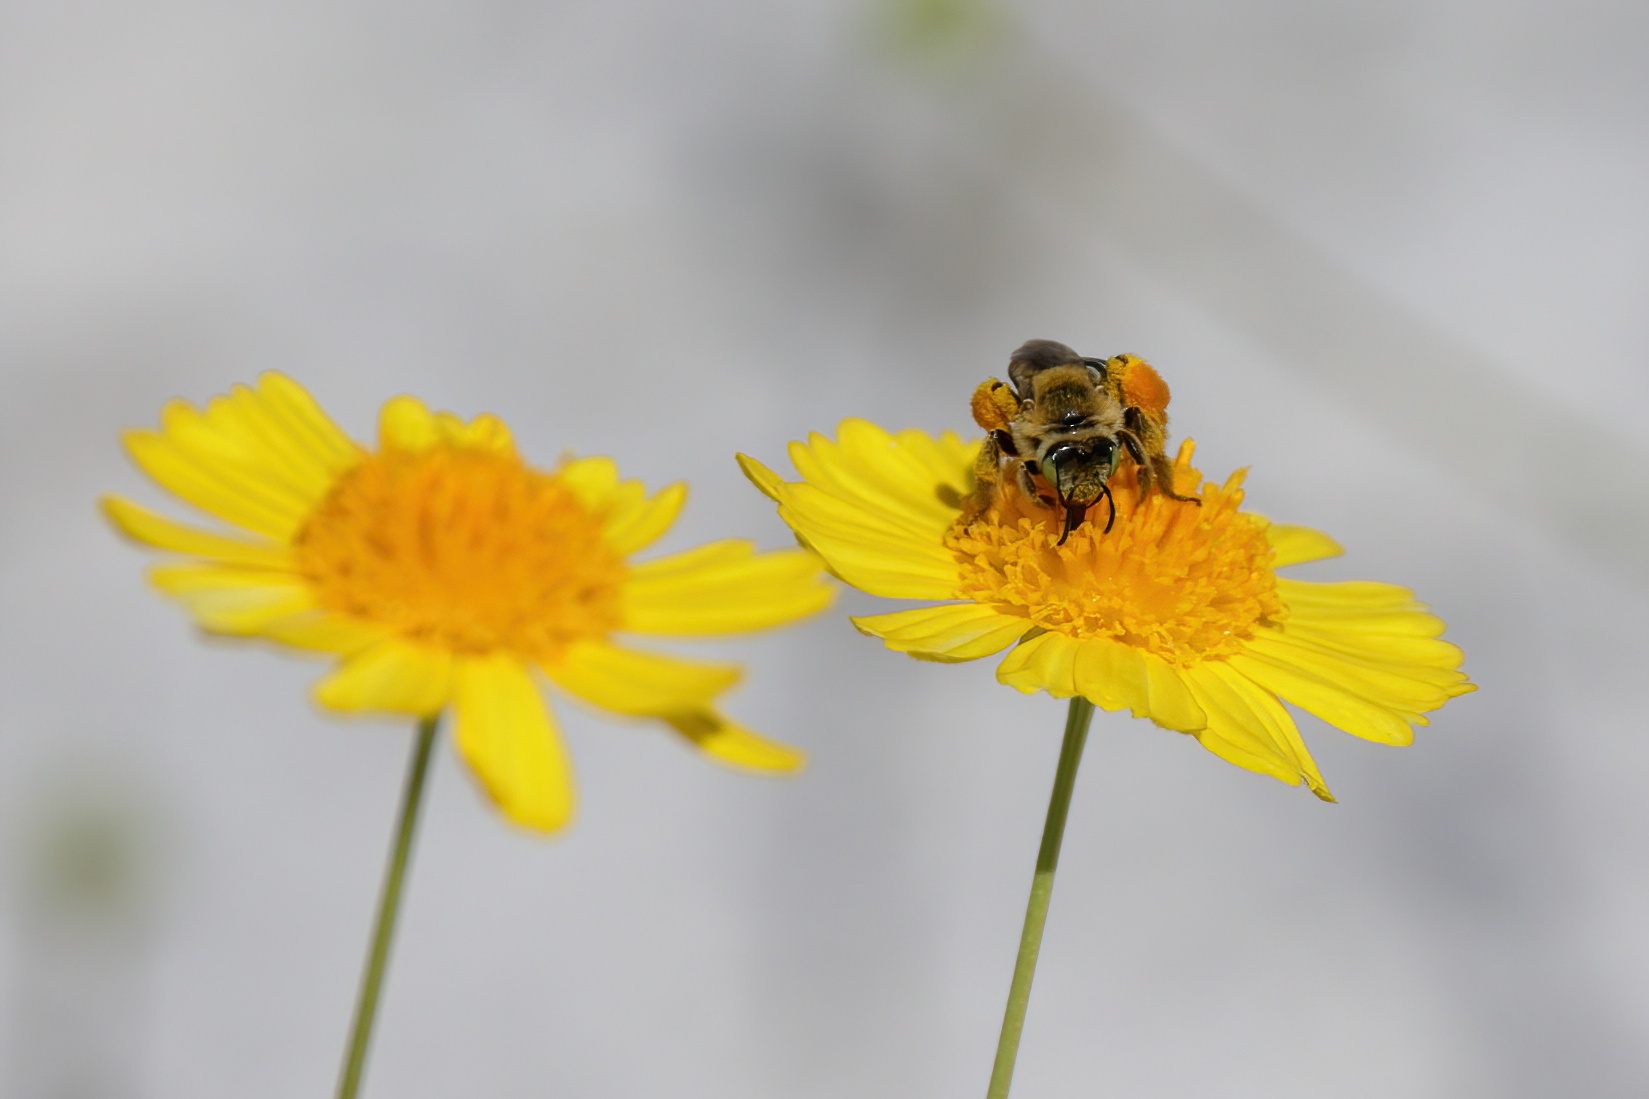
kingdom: Animalia
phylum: Arthropoda
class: Insecta
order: Hymenoptera
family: Melittidae
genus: Hesperapis
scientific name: Hesperapis oraria
